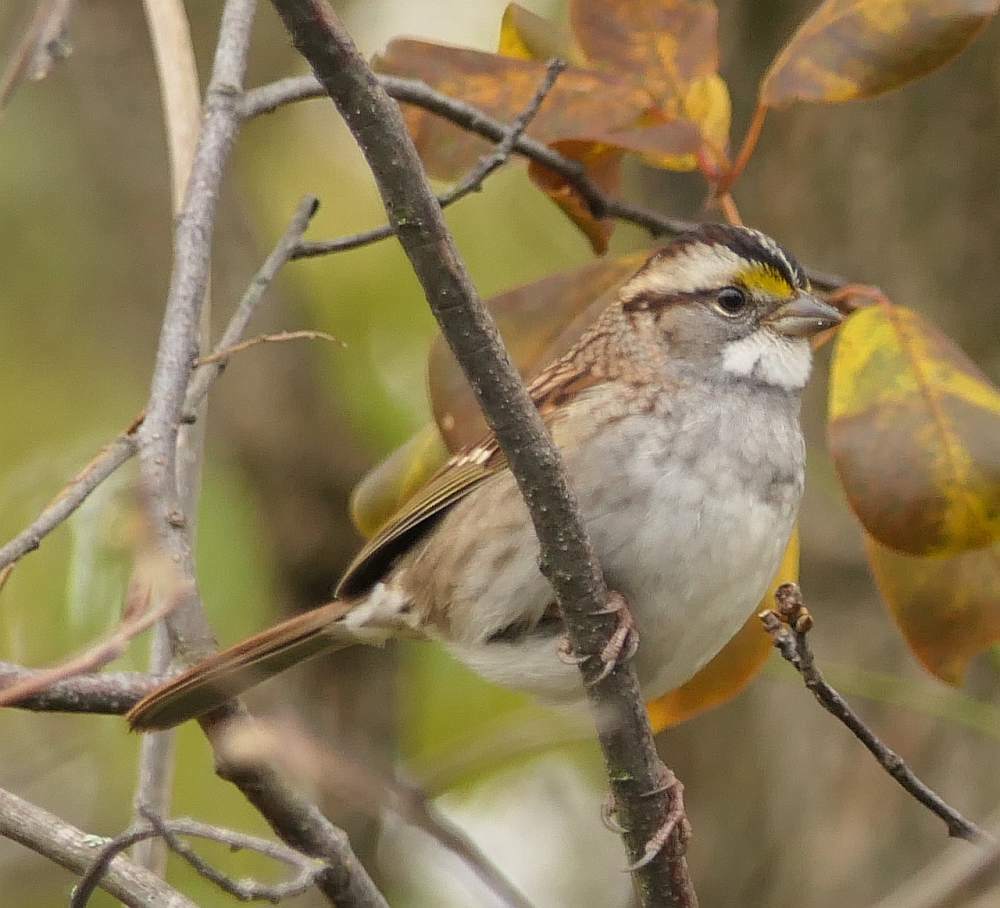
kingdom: Animalia
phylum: Chordata
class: Aves
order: Passeriformes
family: Passerellidae
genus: Zonotrichia
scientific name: Zonotrichia albicollis
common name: White-throated sparrow
